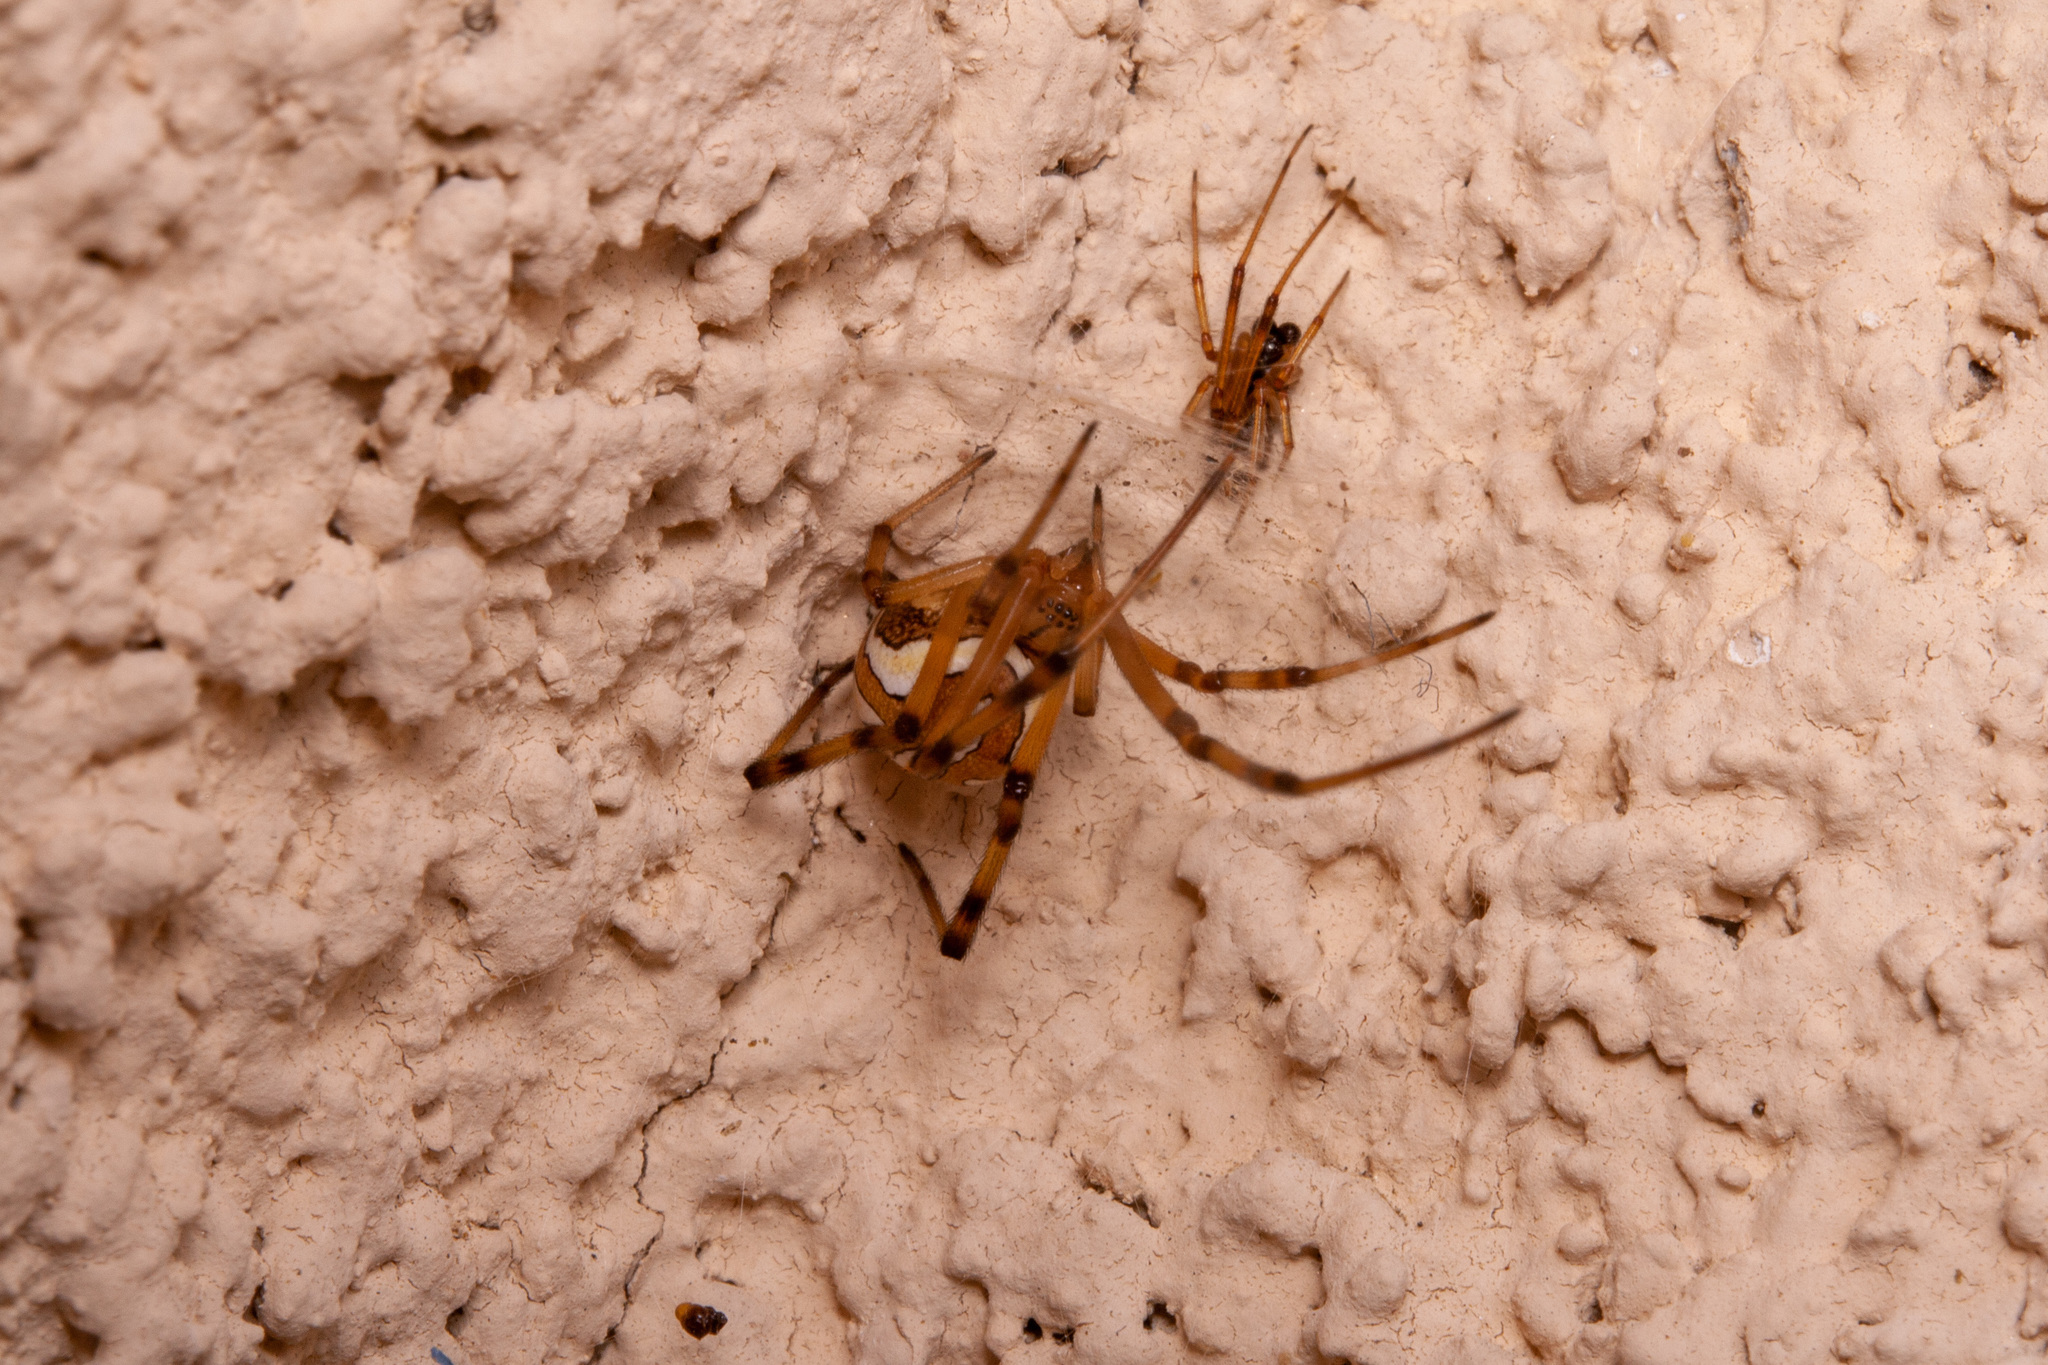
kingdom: Animalia
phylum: Arthropoda
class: Arachnida
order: Araneae
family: Theridiidae
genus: Latrodectus
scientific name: Latrodectus hesperus
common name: Western black widow
